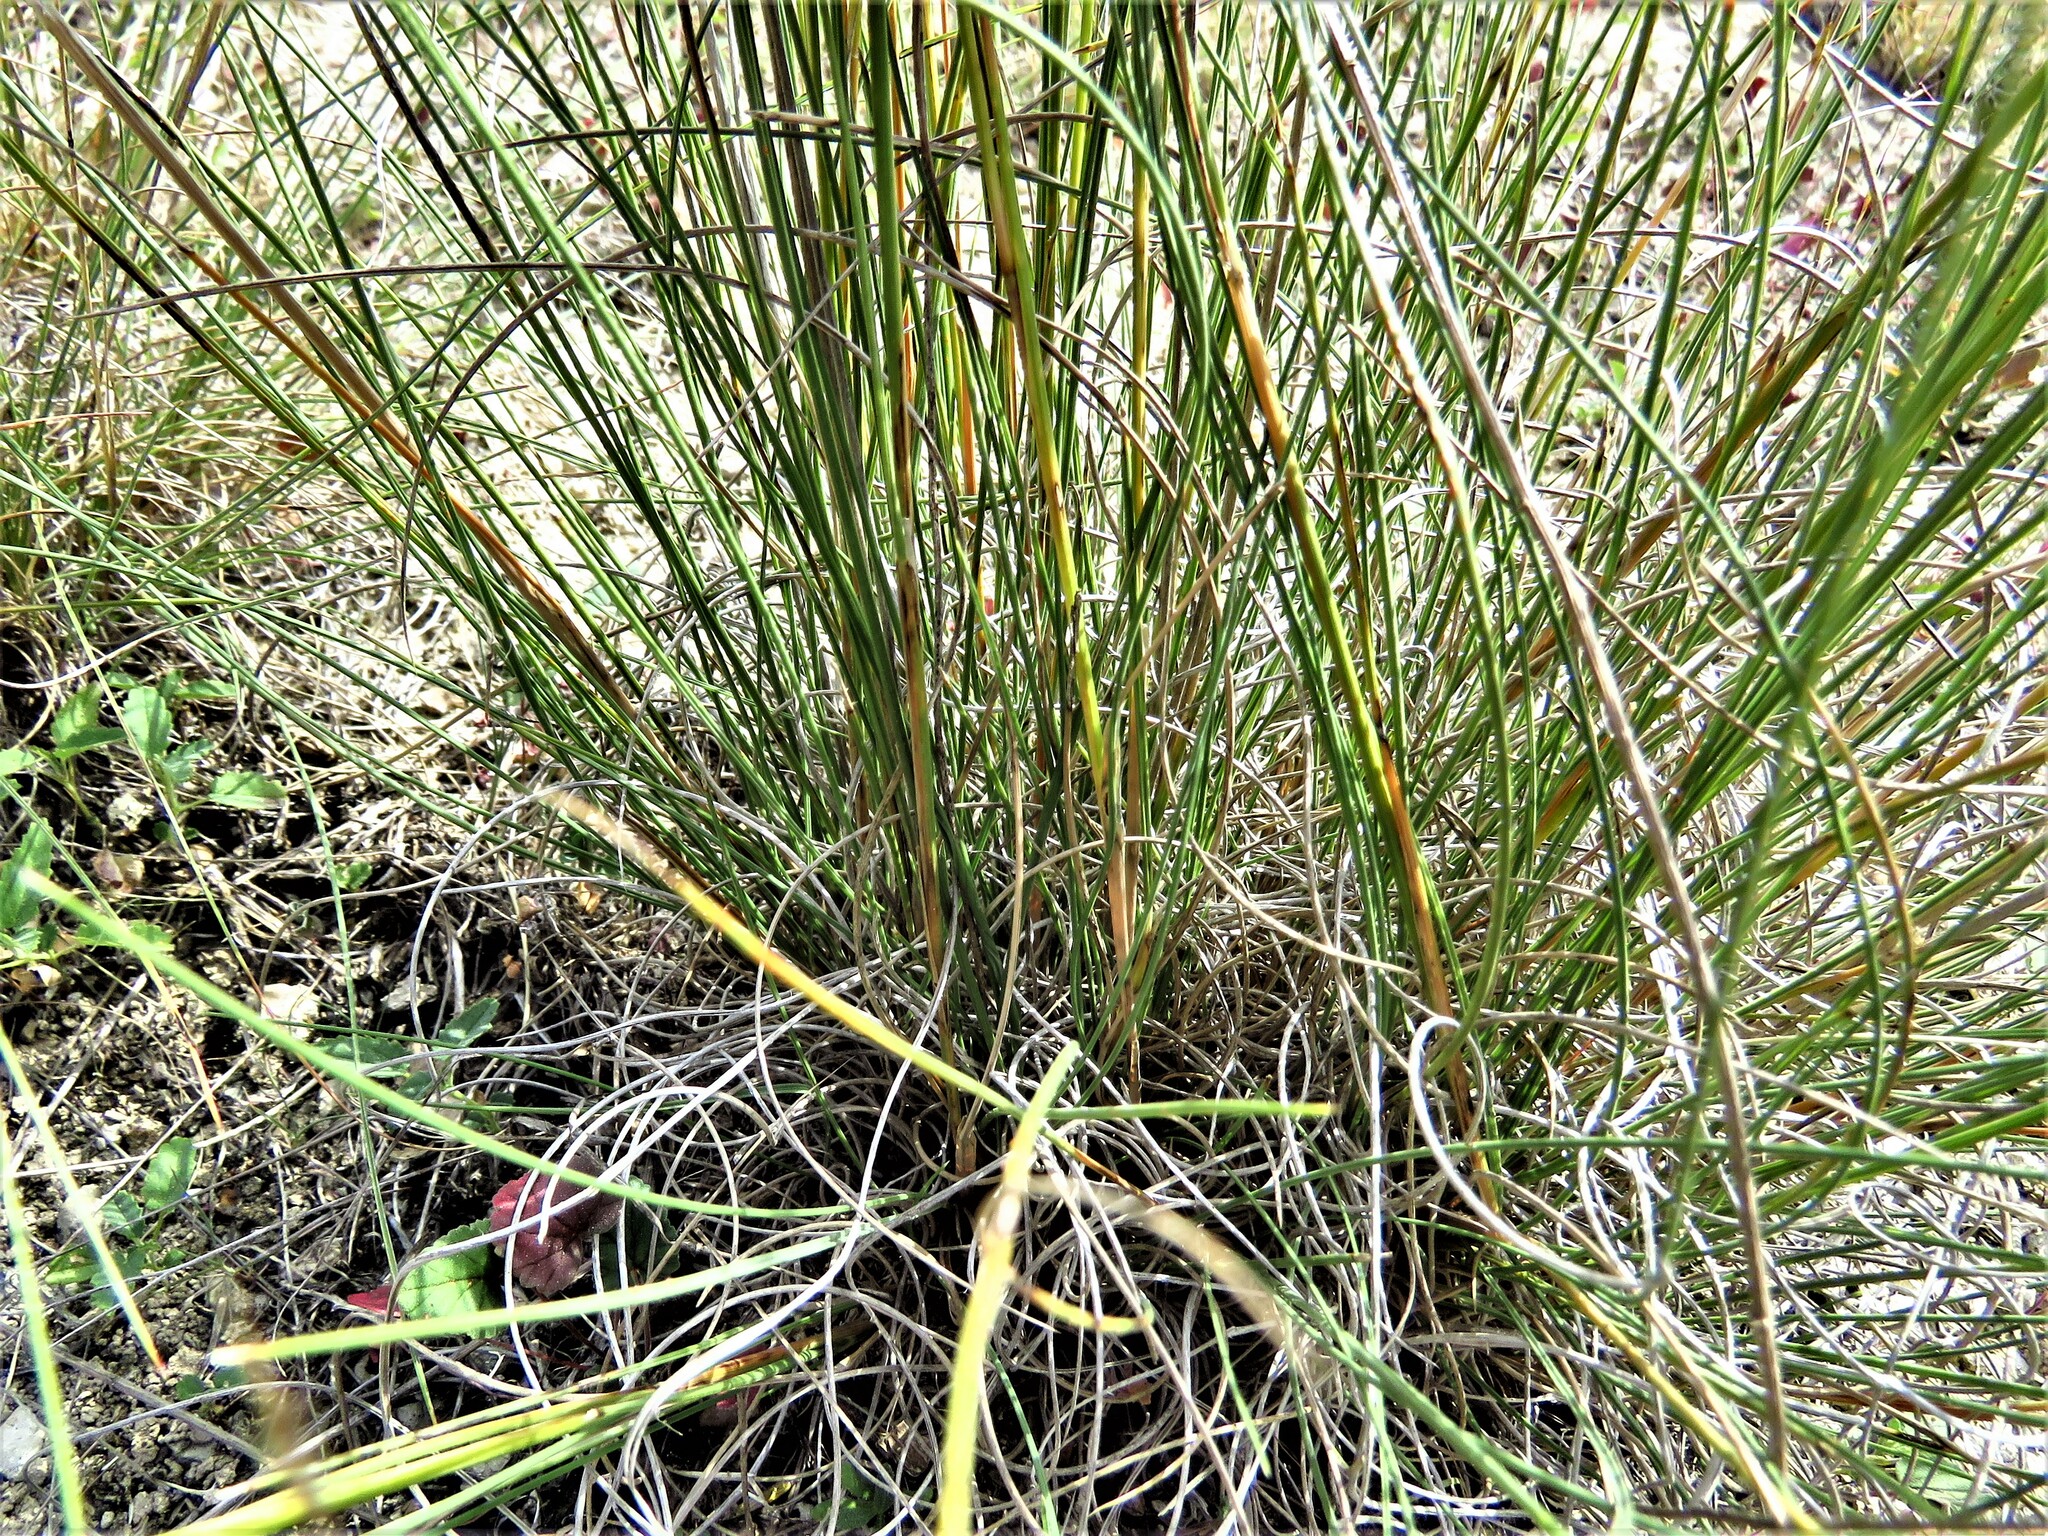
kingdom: Plantae
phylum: Tracheophyta
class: Liliopsida
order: Poales
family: Poaceae
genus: Muhlenbergia
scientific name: Muhlenbergia reverchonii
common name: Seep muhly
